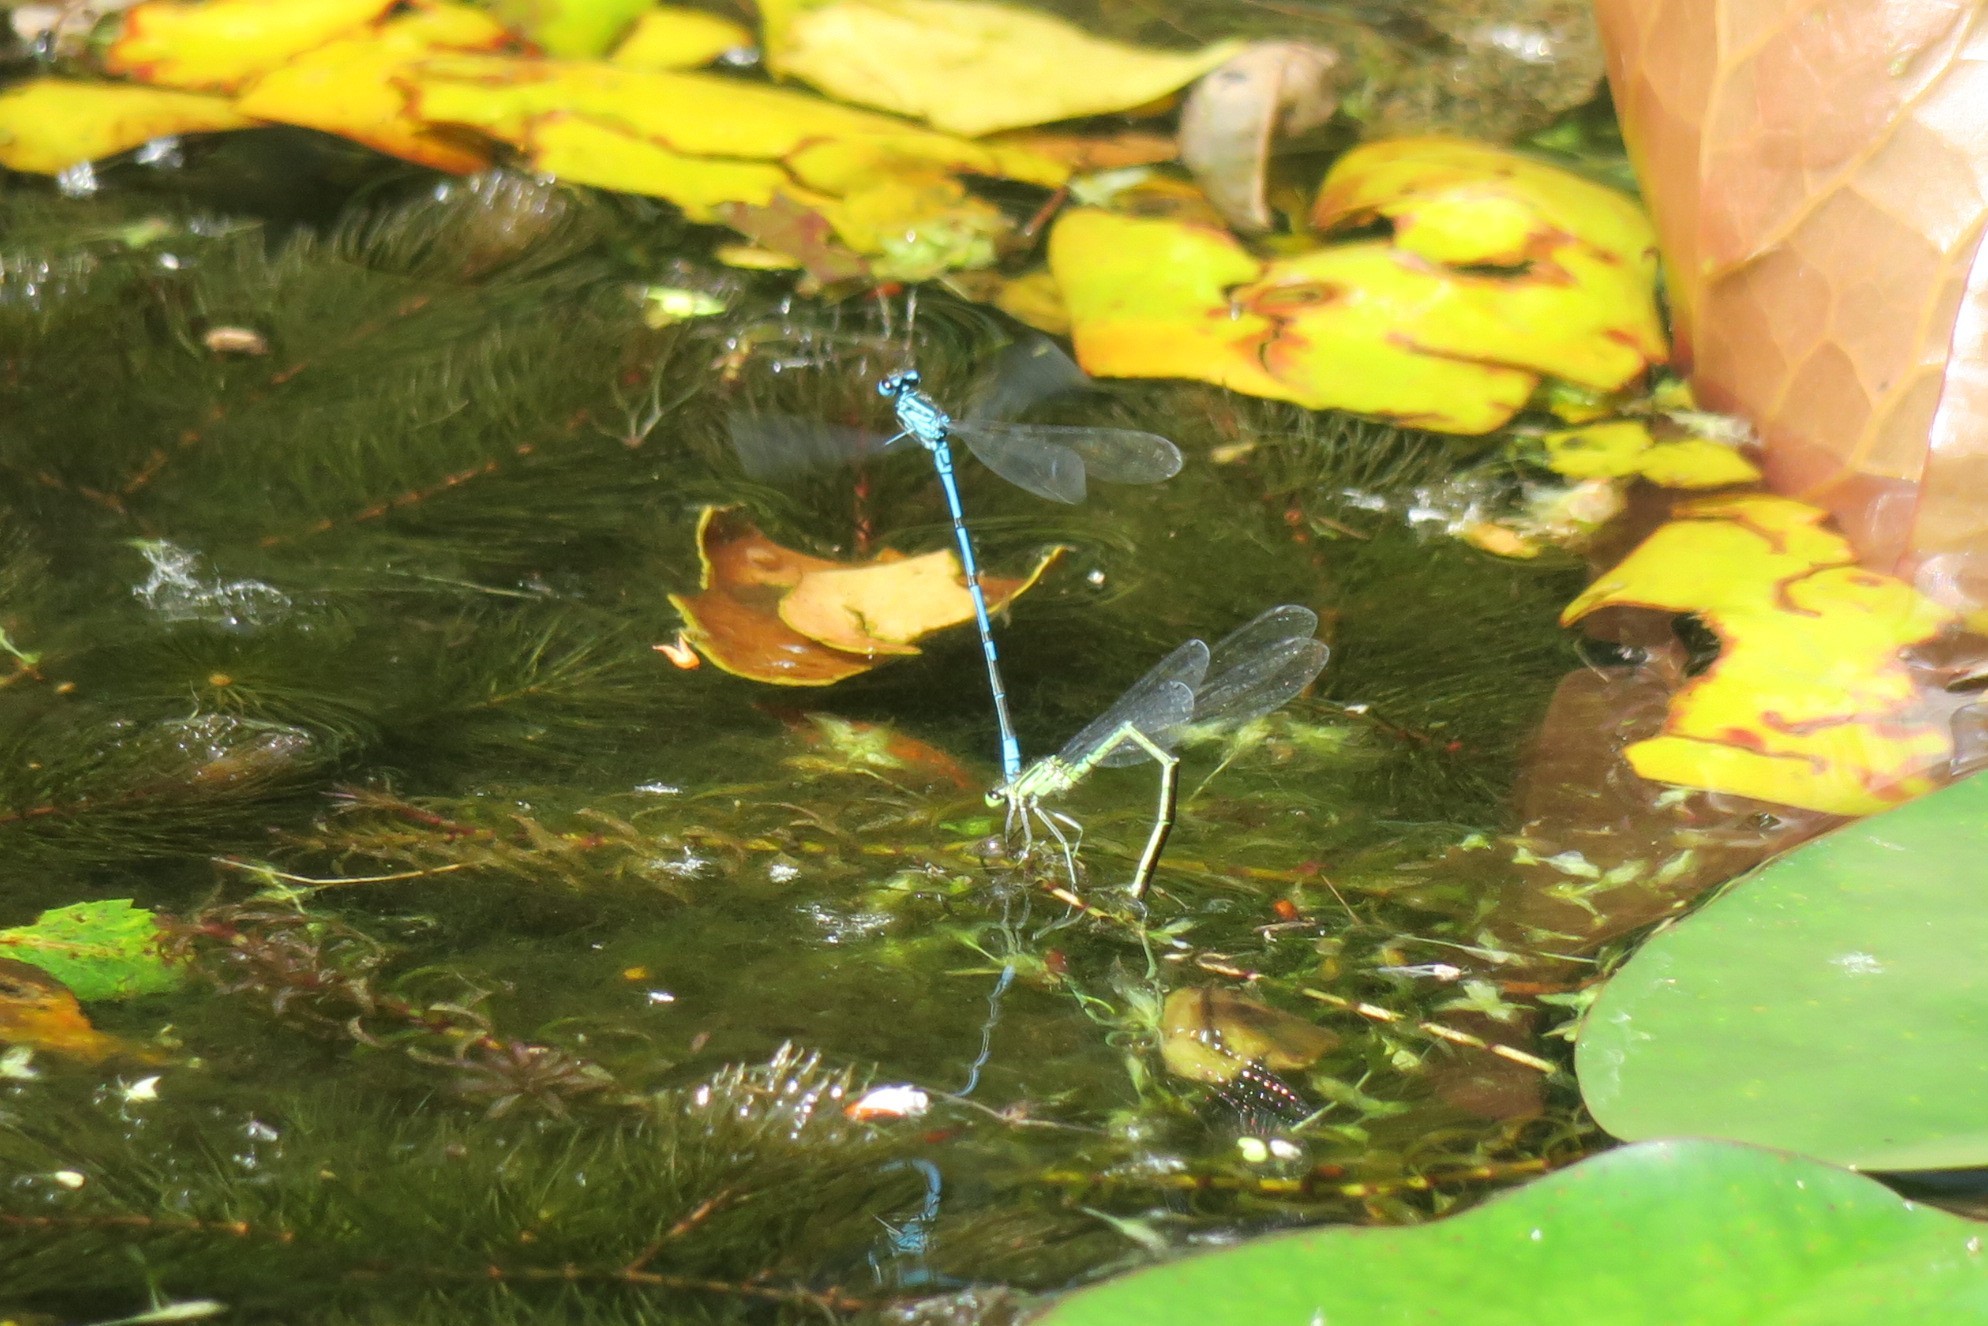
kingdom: Animalia
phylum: Arthropoda
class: Insecta
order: Odonata
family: Coenagrionidae
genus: Coenagrion
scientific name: Coenagrion puella
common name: Azure damselfly
